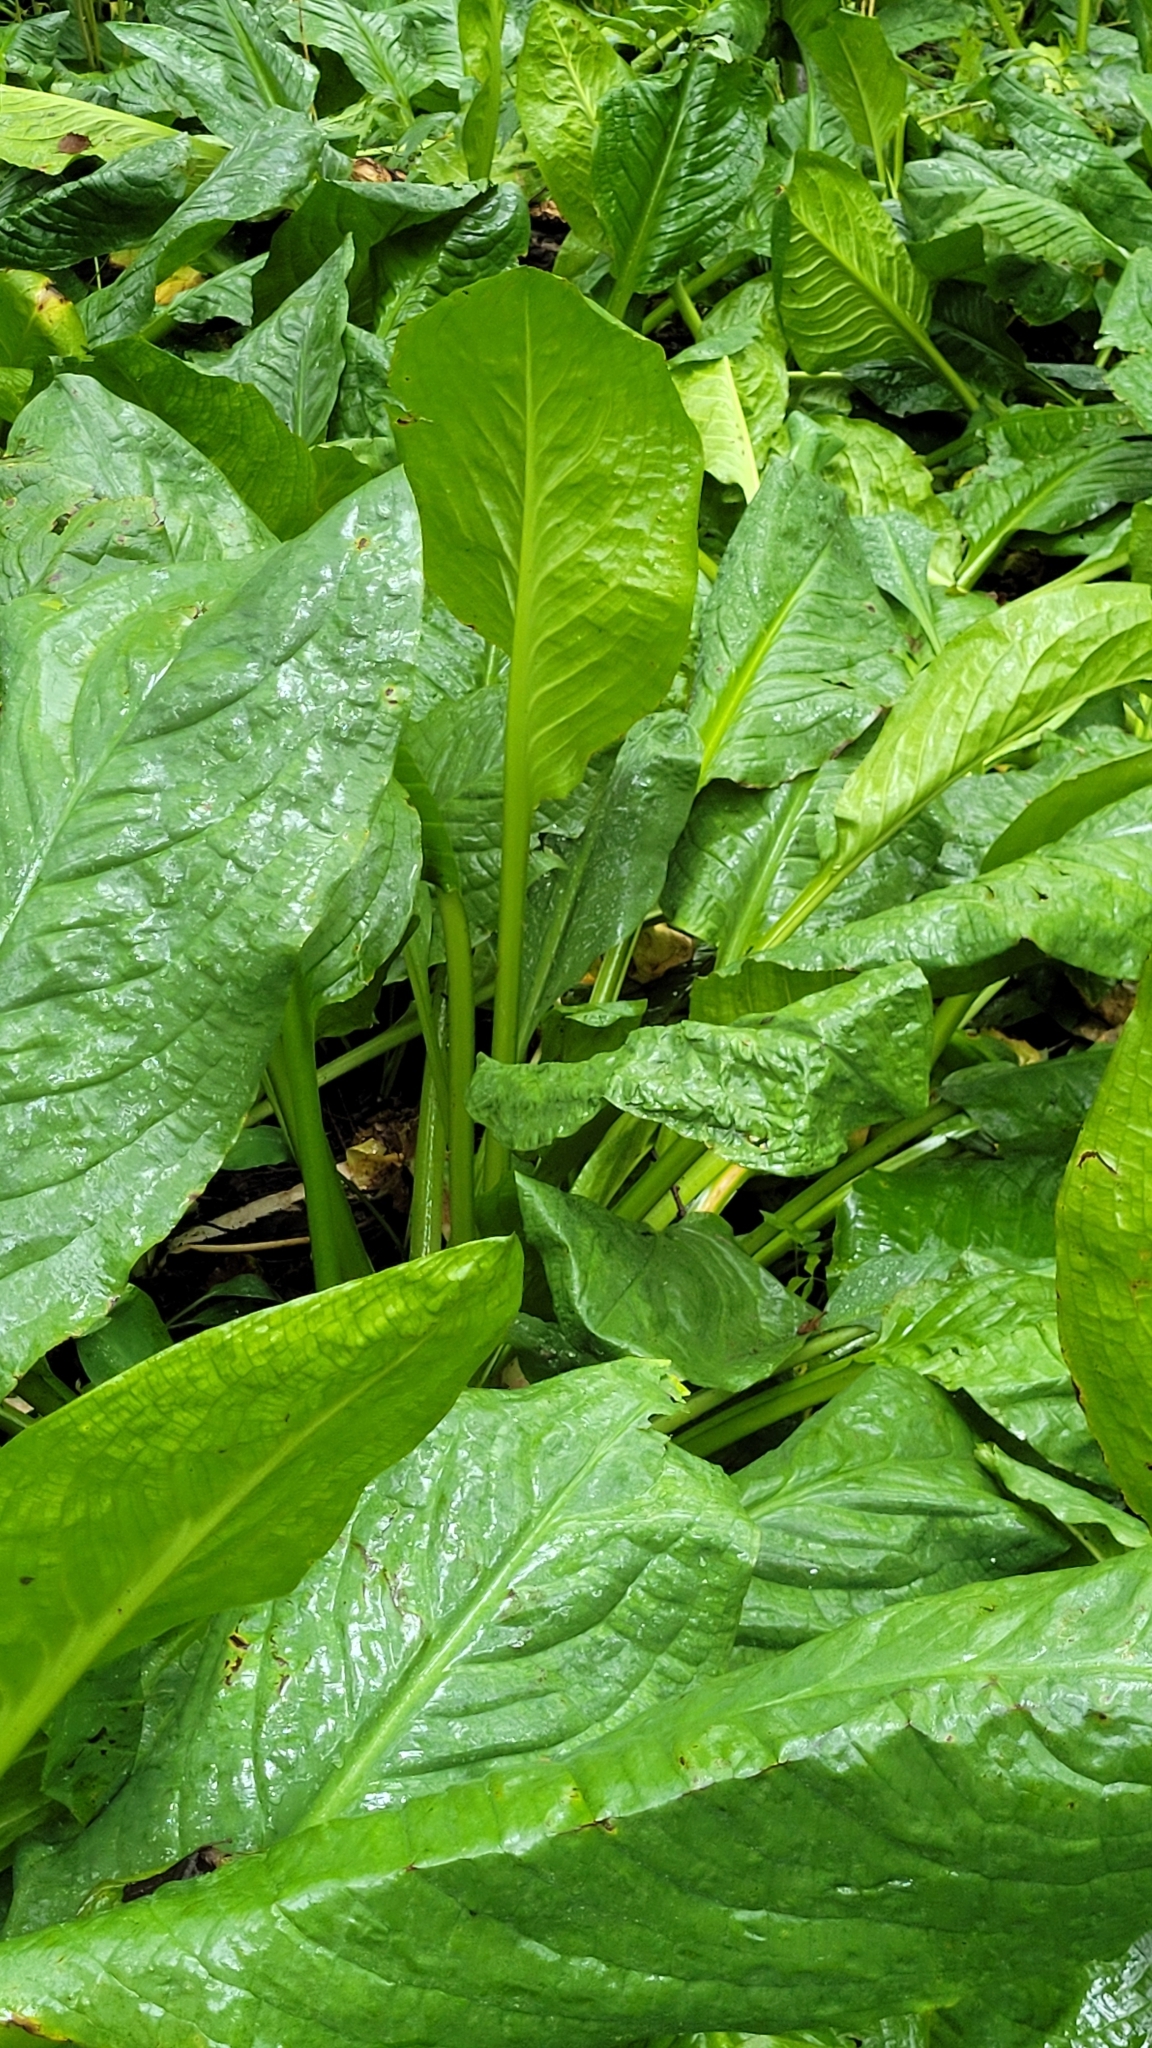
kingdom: Plantae
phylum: Tracheophyta
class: Liliopsida
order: Alismatales
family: Araceae
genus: Lysichiton
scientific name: Lysichiton camtschatcensis
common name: Asian skunk-cabbage
